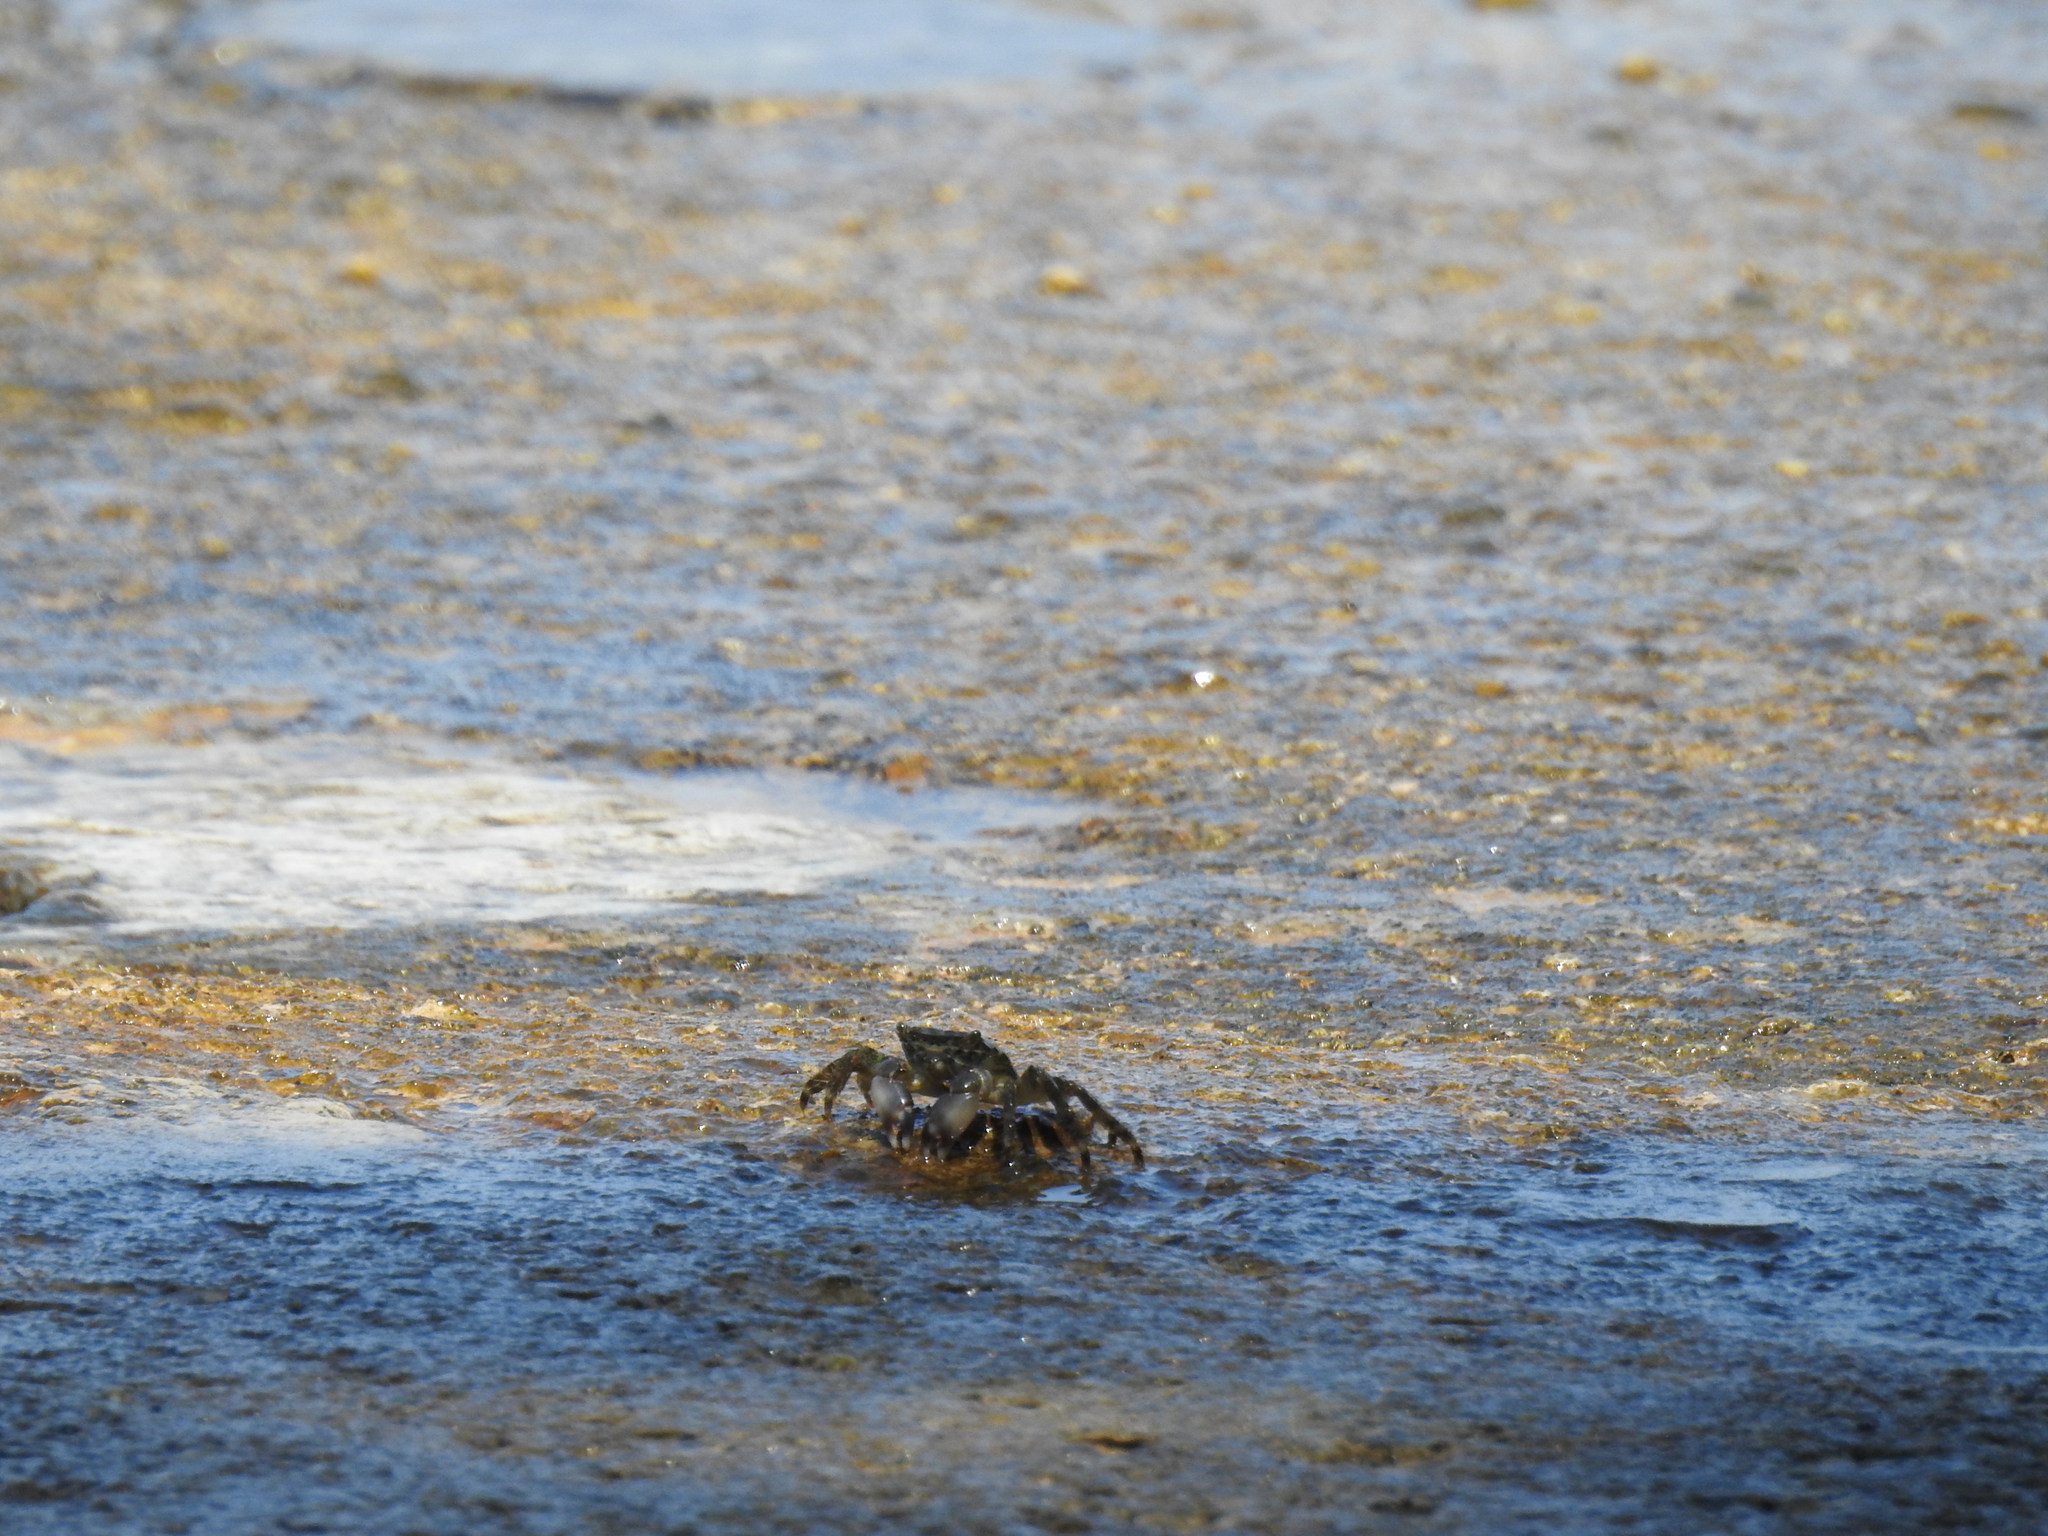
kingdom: Animalia
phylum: Arthropoda
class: Malacostraca
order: Decapoda
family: Grapsidae
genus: Pachygrapsus
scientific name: Pachygrapsus marmoratus
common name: Marbled rock crab
